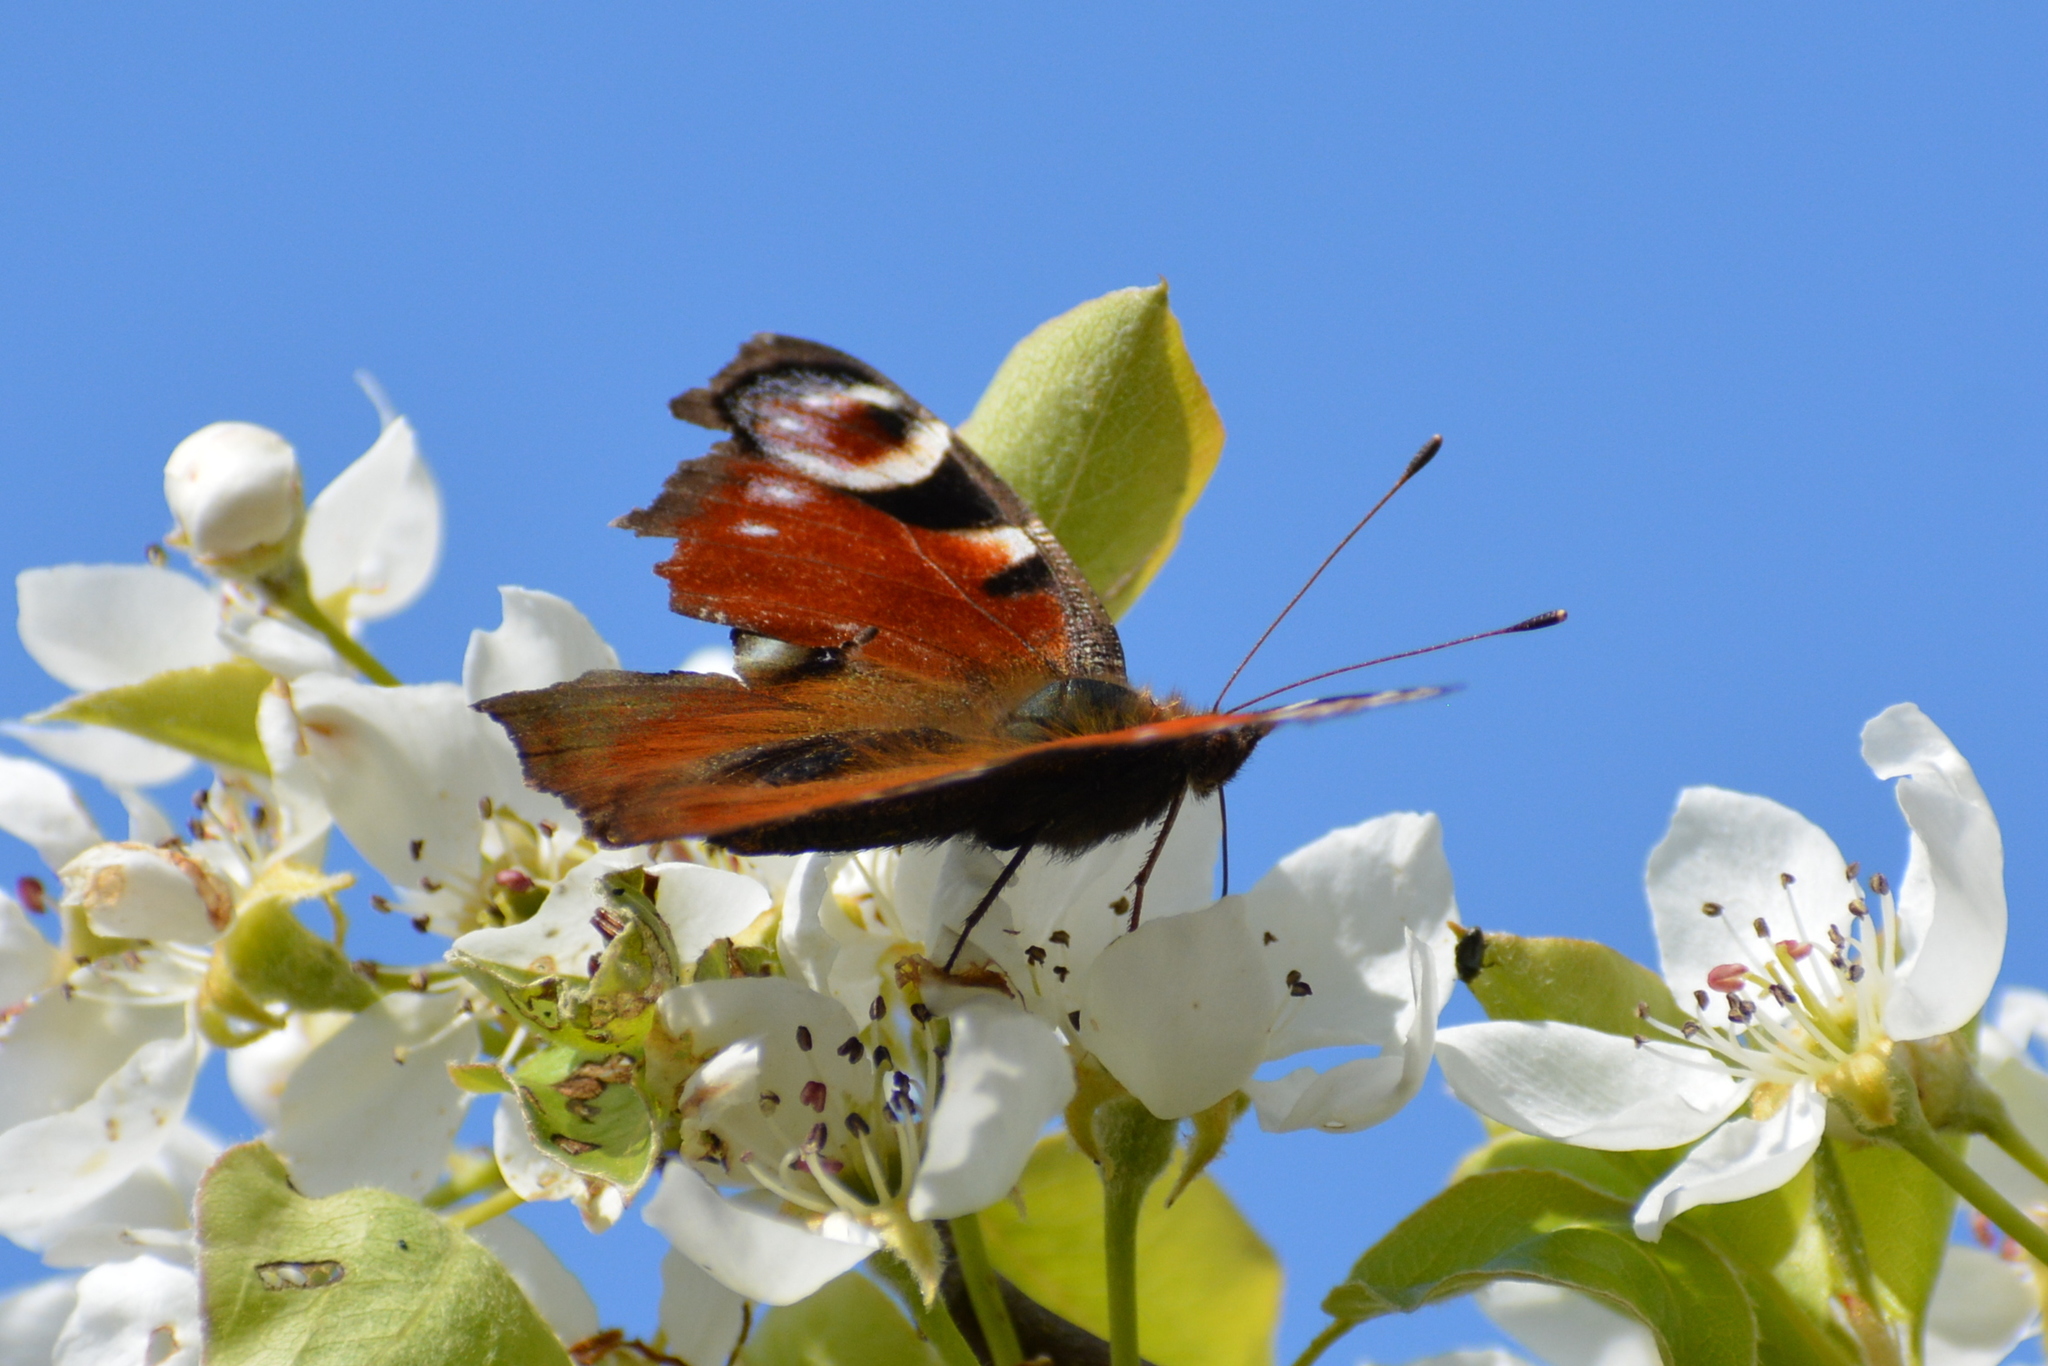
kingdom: Animalia
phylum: Arthropoda
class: Insecta
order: Lepidoptera
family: Nymphalidae
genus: Aglais
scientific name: Aglais io
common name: Peacock
